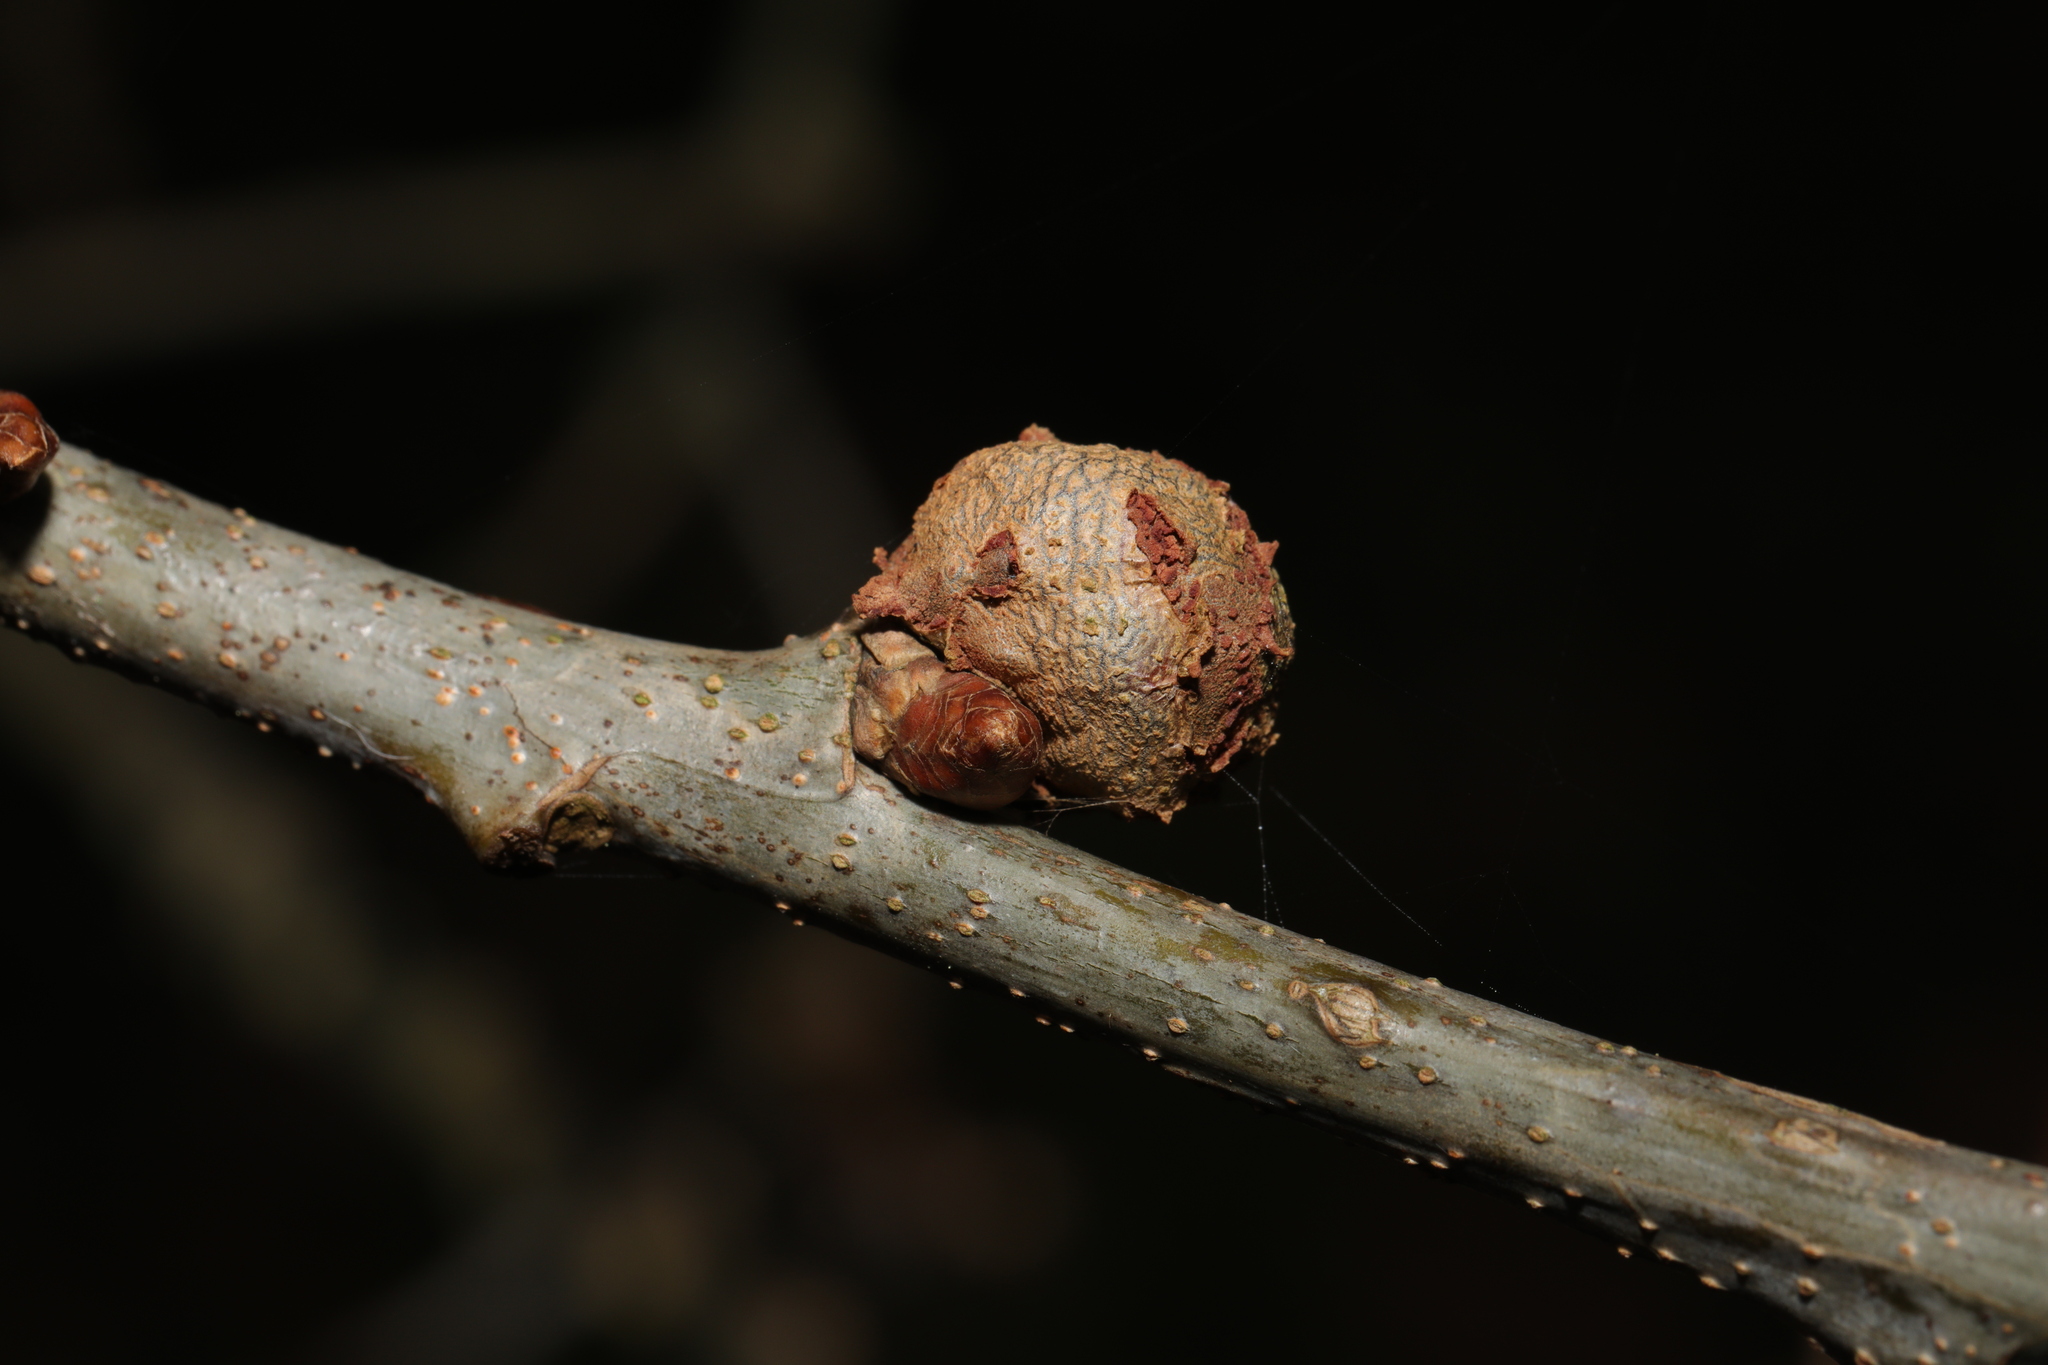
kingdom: Animalia
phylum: Arthropoda
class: Insecta
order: Hymenoptera
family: Cynipidae
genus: Andricus
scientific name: Andricus lignicolus
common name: Cola-nut gall
